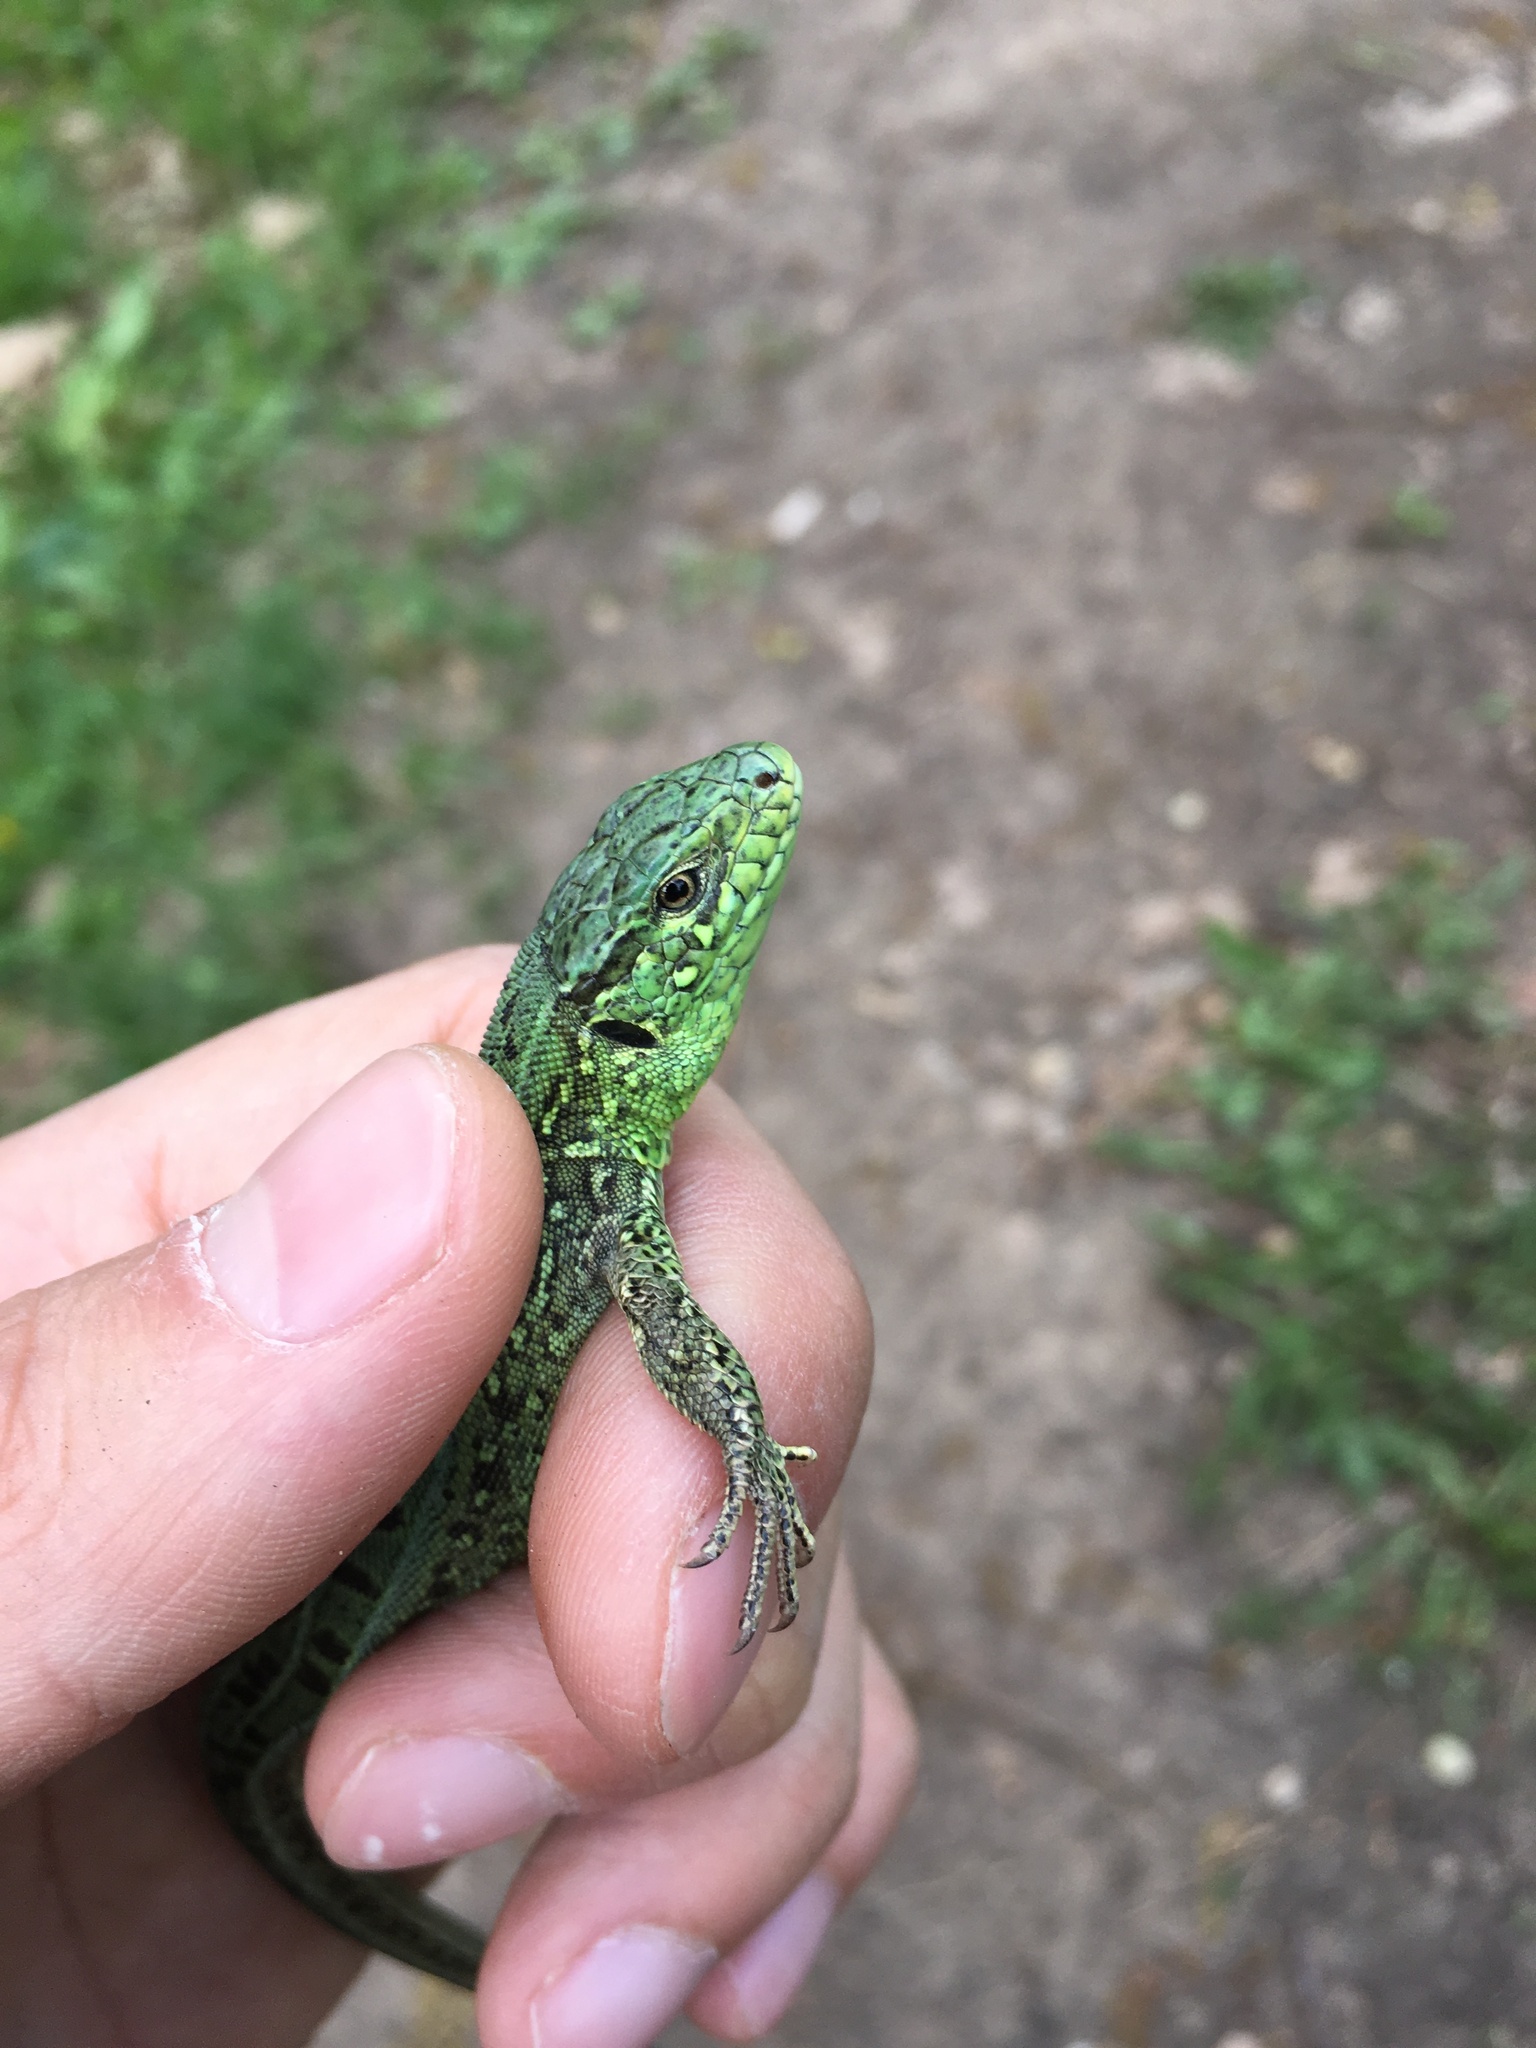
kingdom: Animalia
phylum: Chordata
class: Squamata
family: Lacertidae
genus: Lacerta
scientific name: Lacerta agilis
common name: Sand lizard
